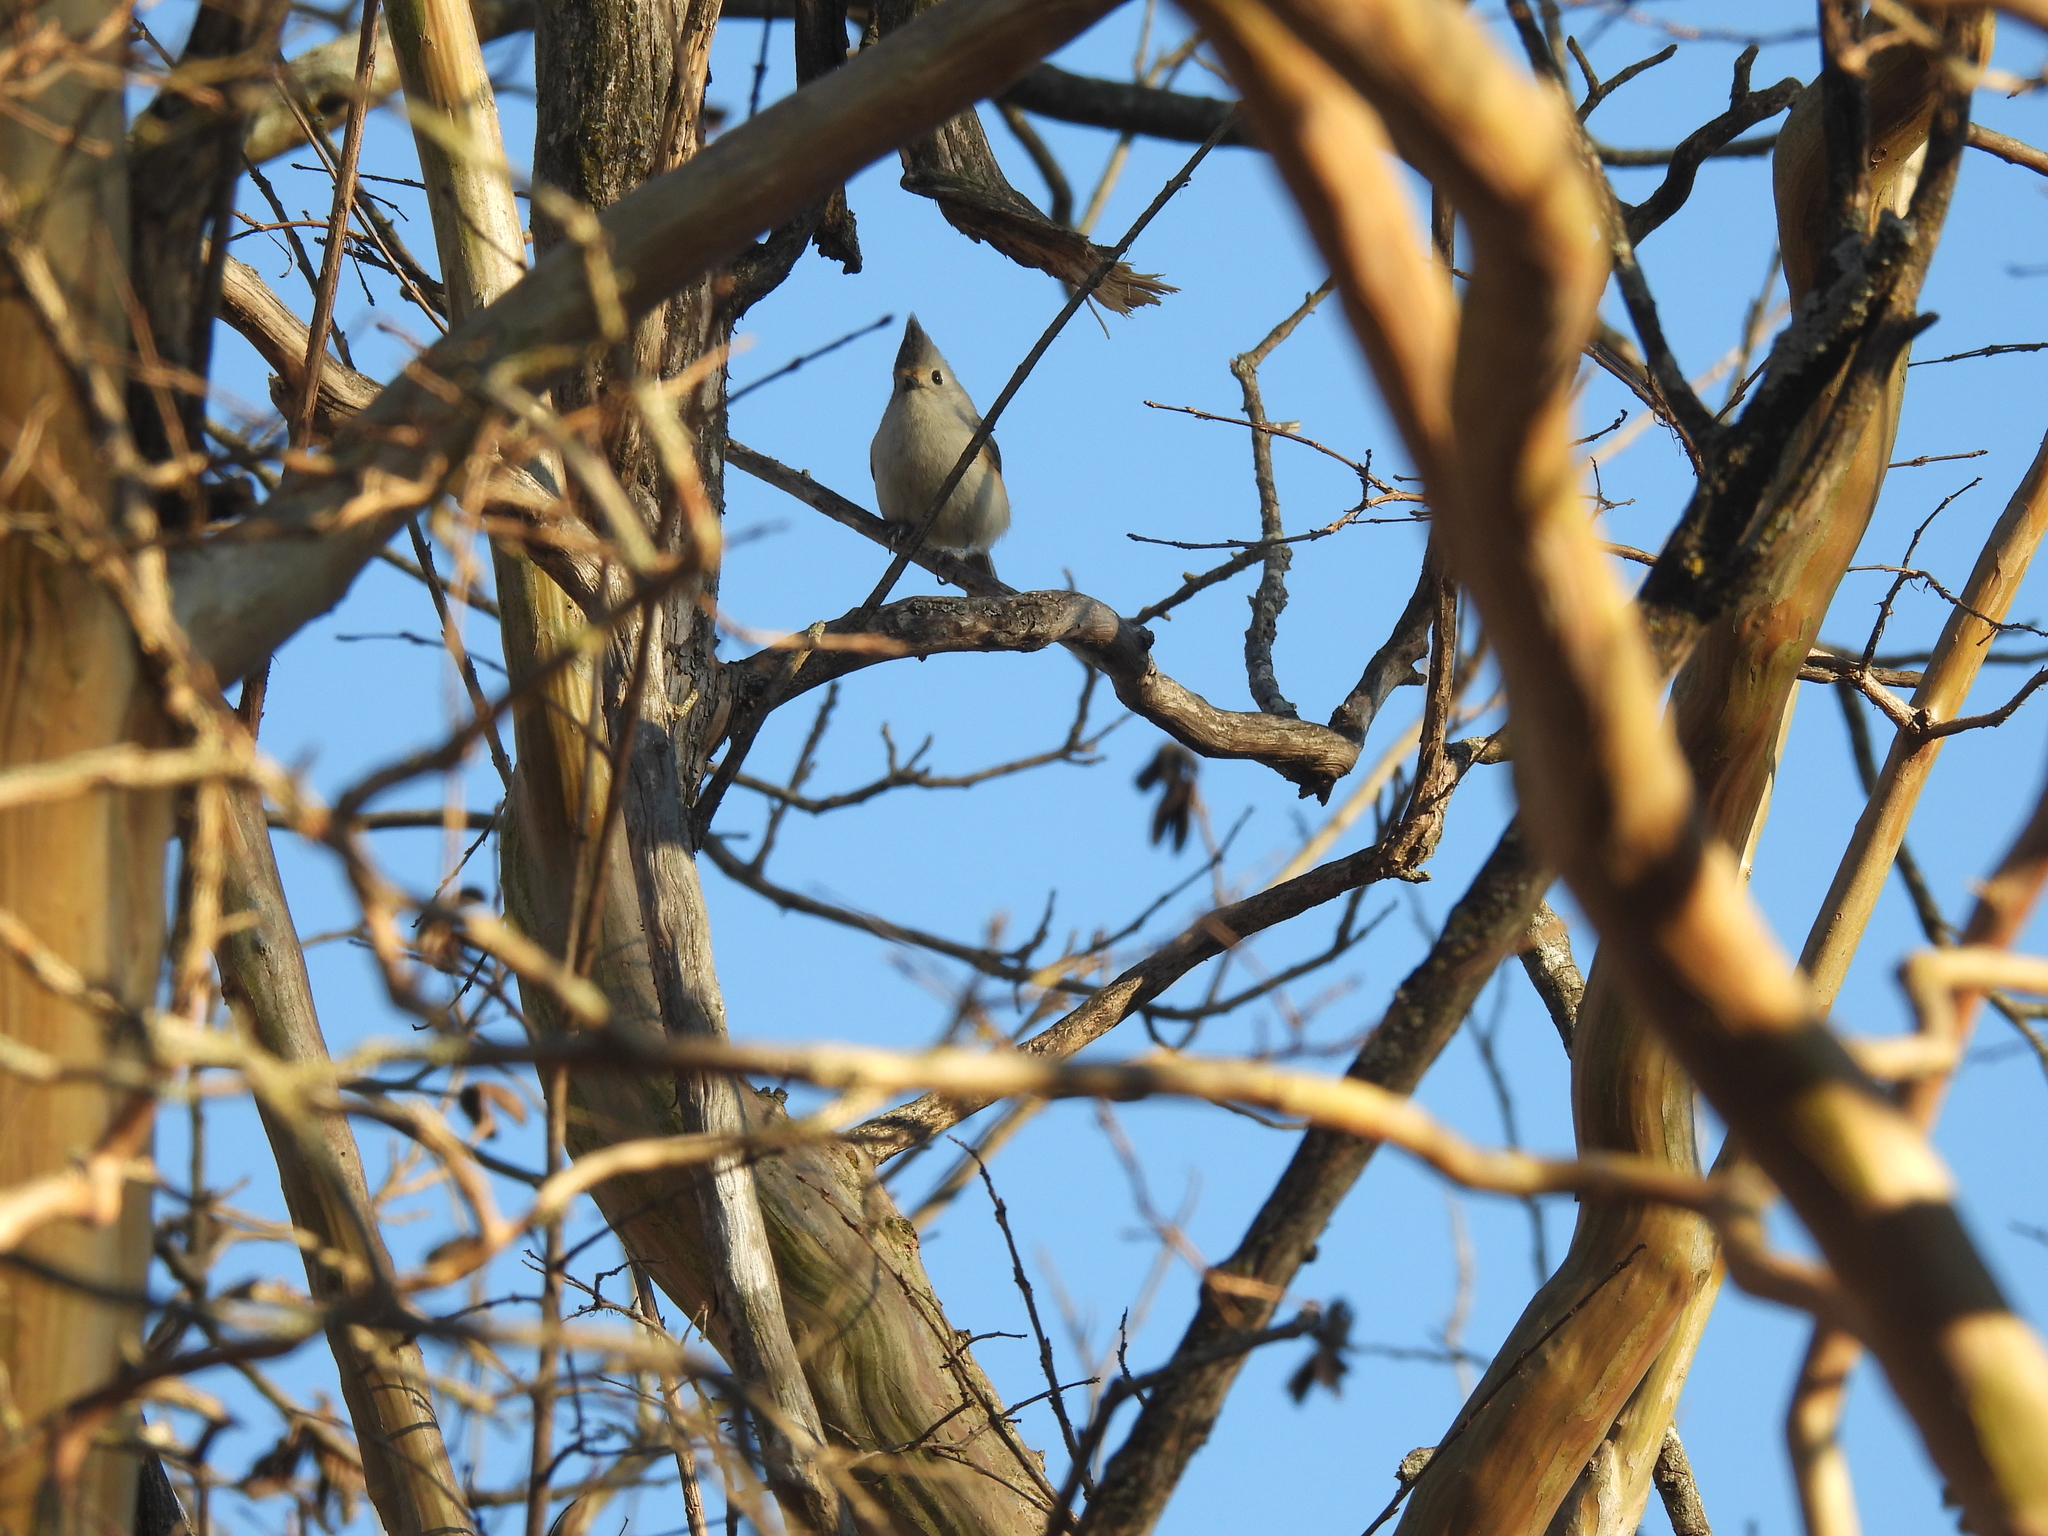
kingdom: Animalia
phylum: Chordata
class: Aves
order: Passeriformes
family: Paridae
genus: Baeolophus
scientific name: Baeolophus atricristatus
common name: Black-crested titmouse
